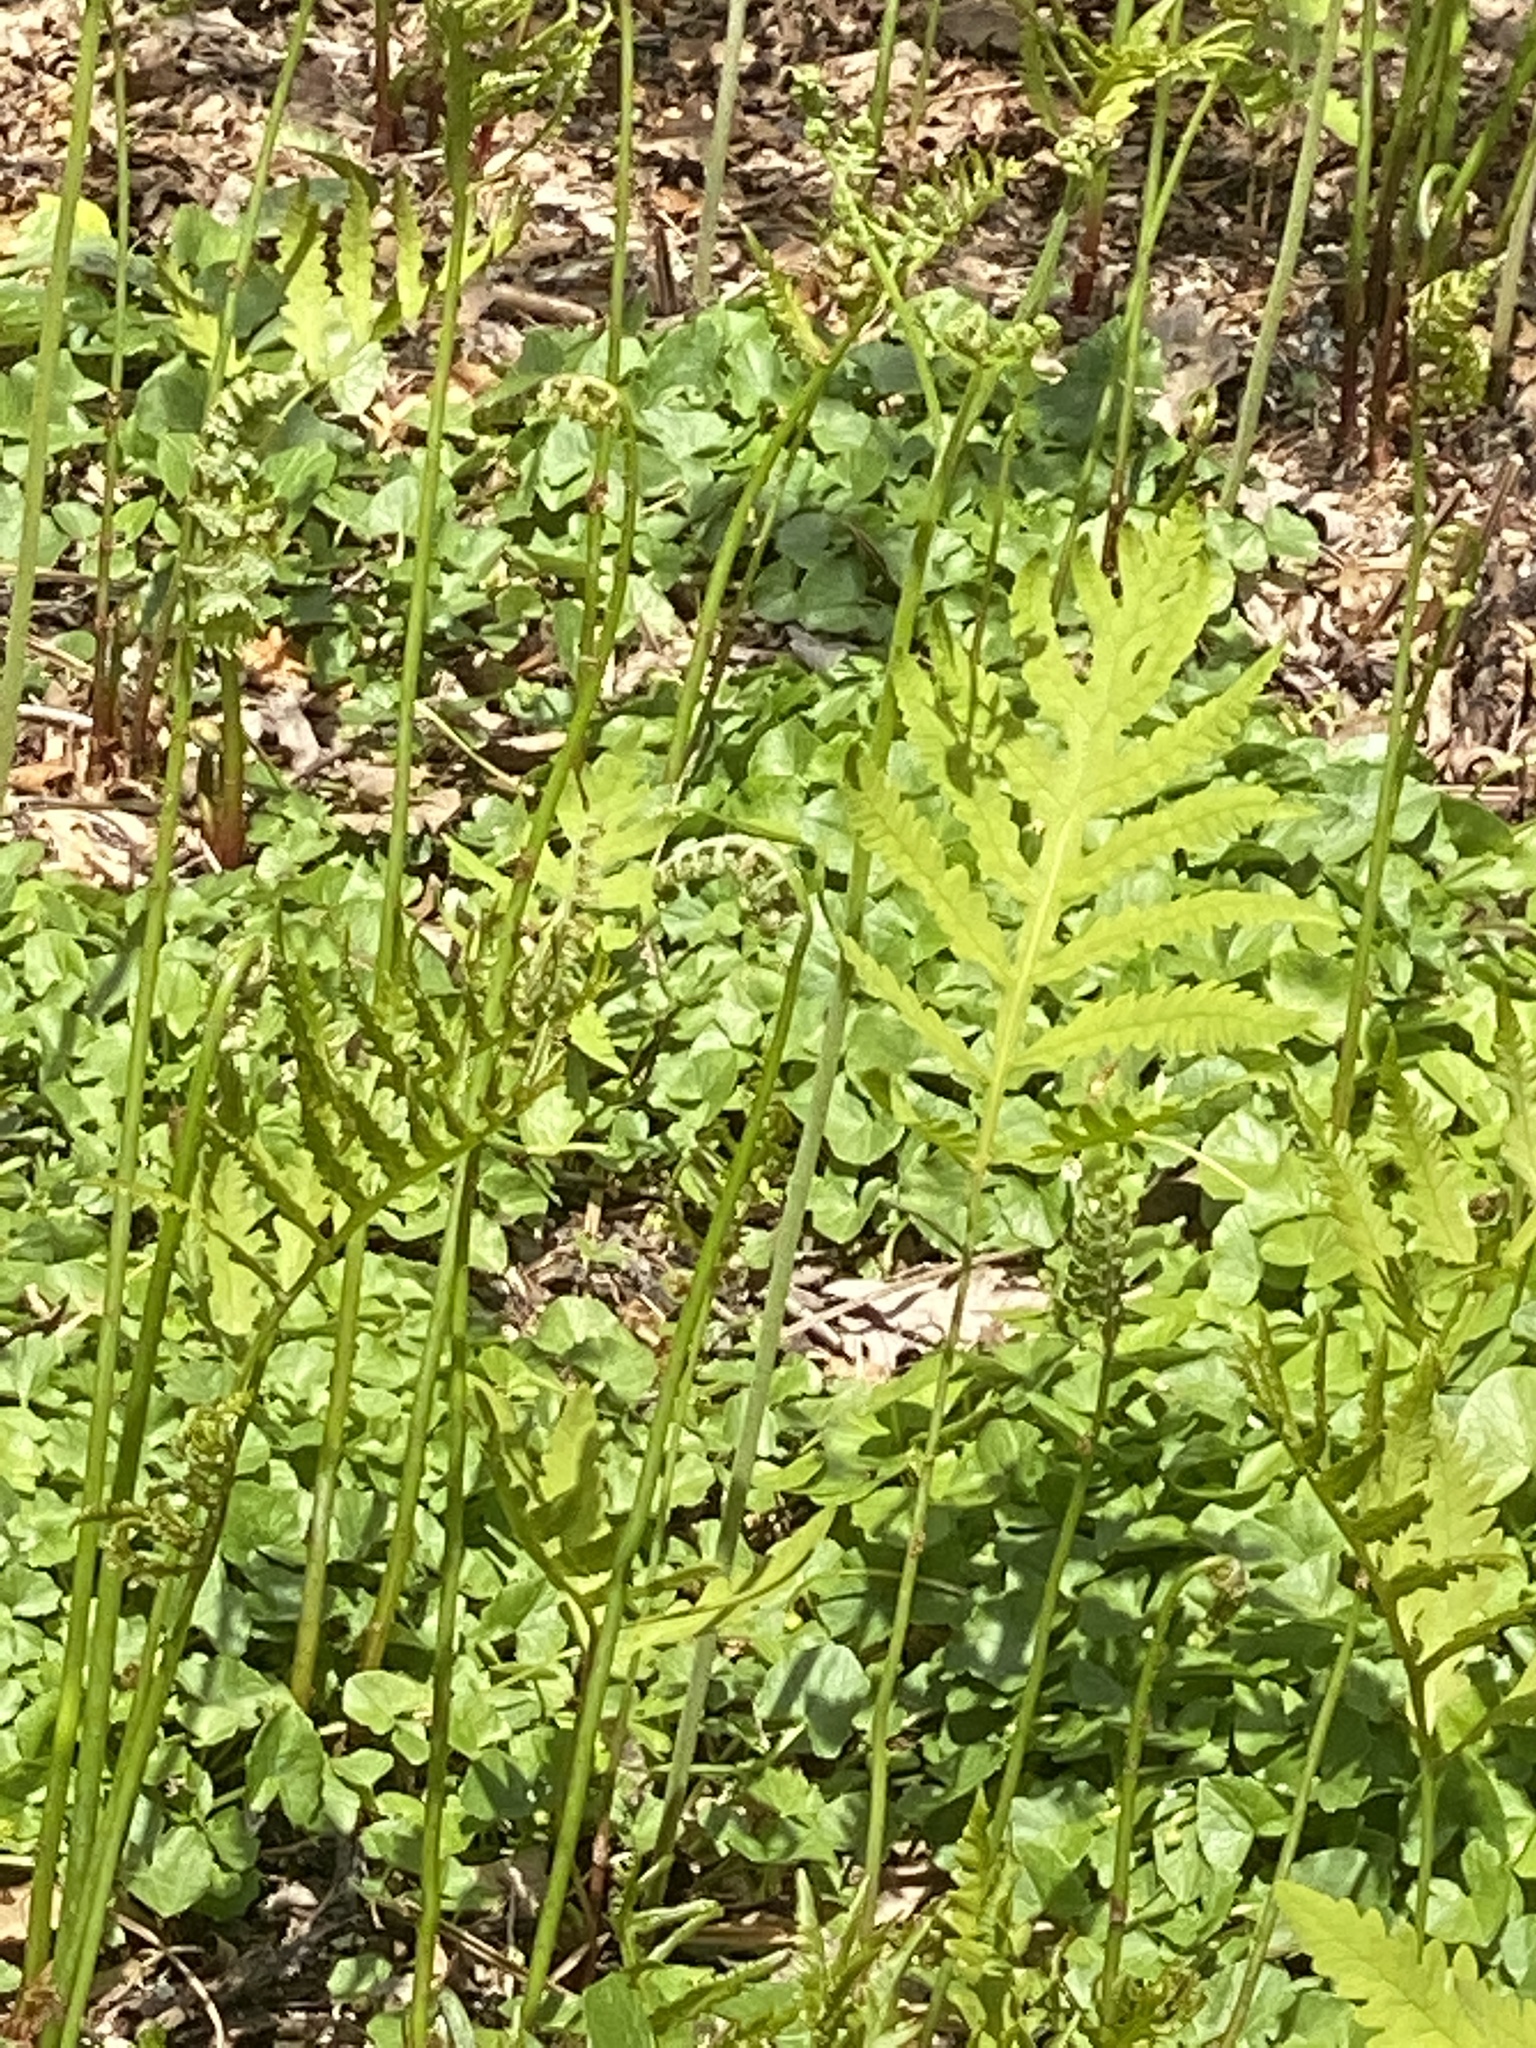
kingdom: Plantae
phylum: Tracheophyta
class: Polypodiopsida
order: Polypodiales
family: Onocleaceae
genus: Onoclea
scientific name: Onoclea sensibilis
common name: Sensitive fern
